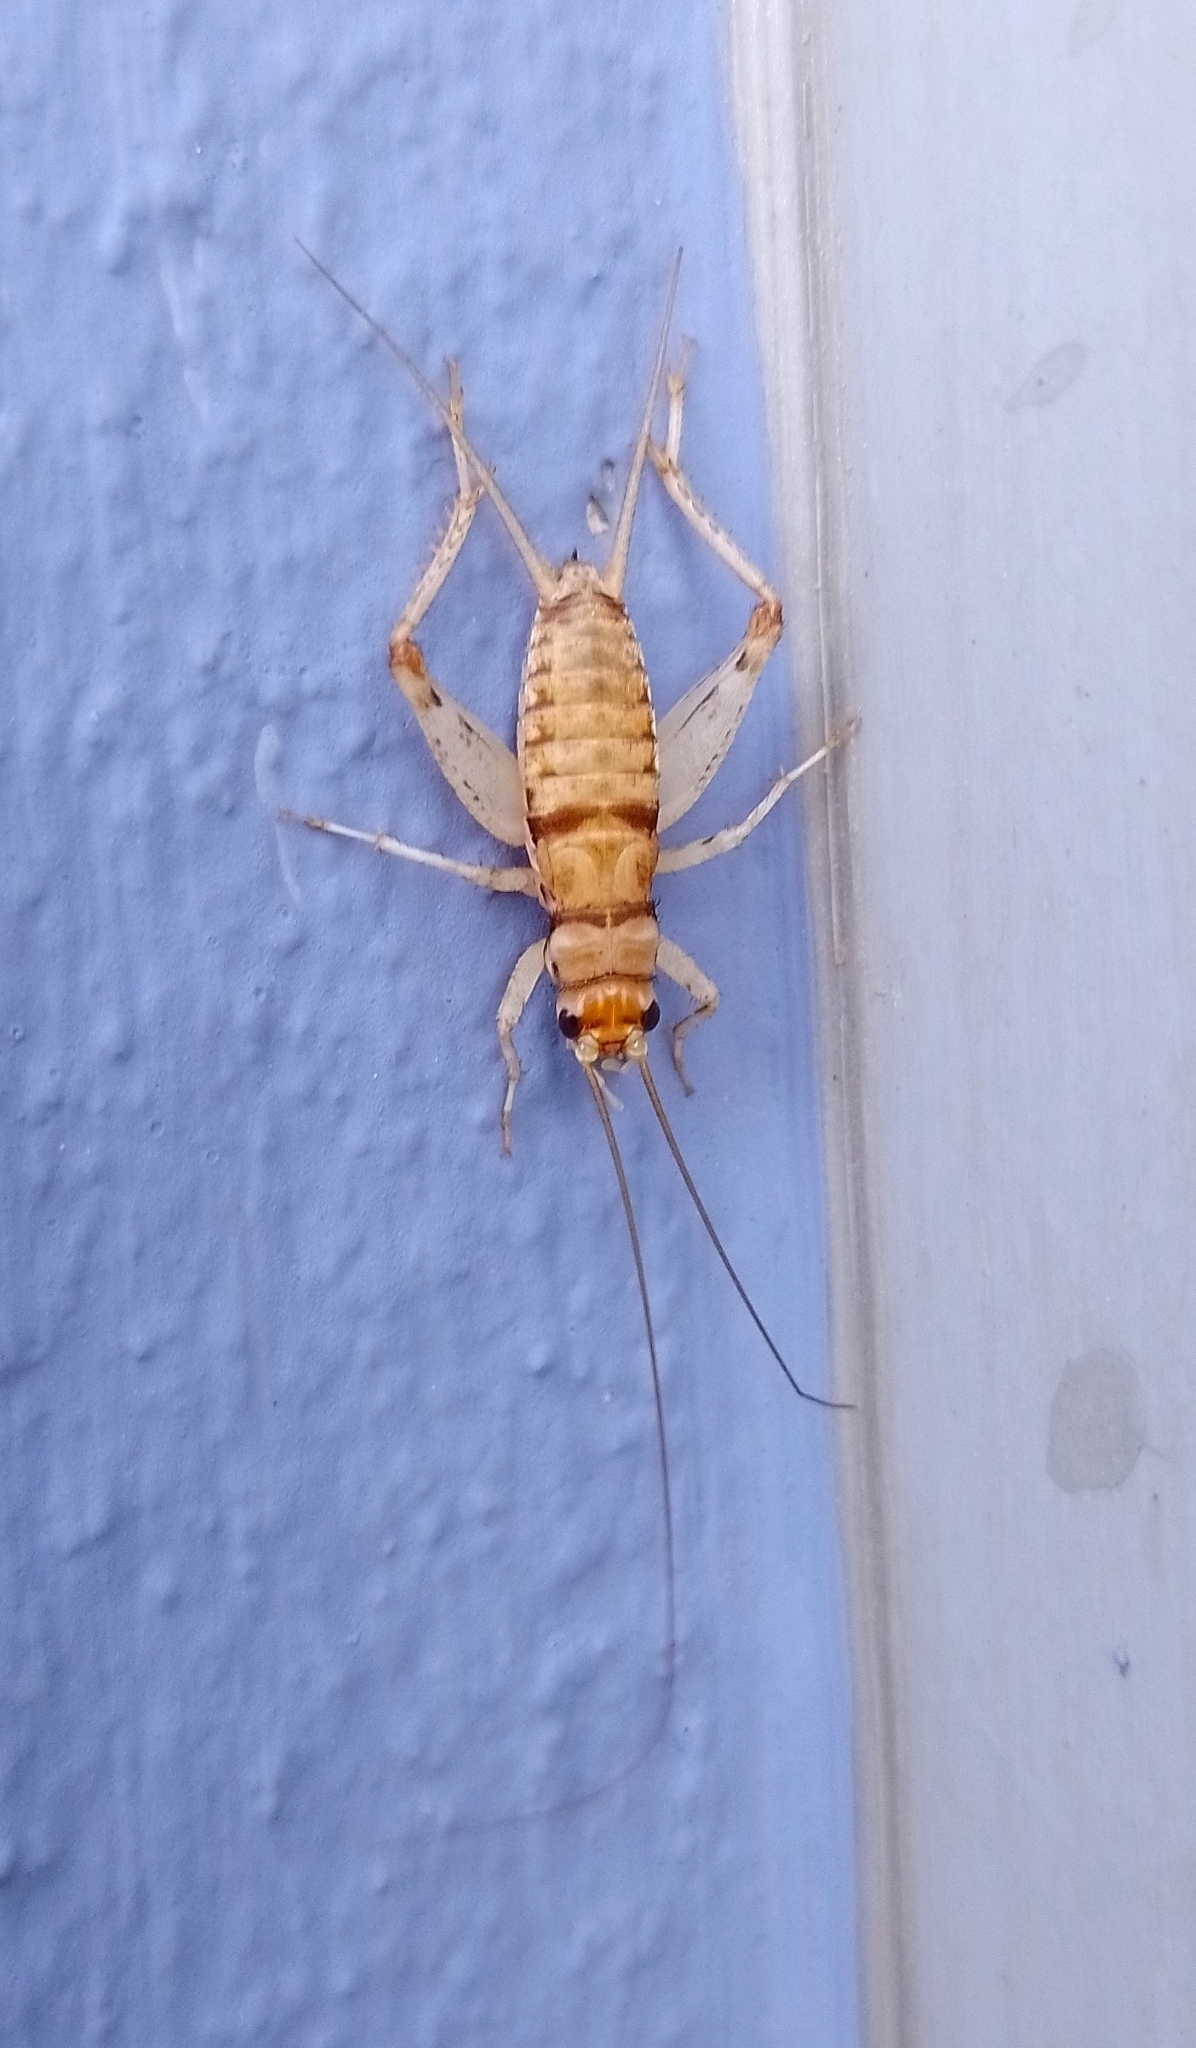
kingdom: Animalia
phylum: Arthropoda
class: Insecta
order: Orthoptera
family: Gryllidae
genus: Gryllodes
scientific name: Gryllodes sigillatus
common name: Tropical house cricket
